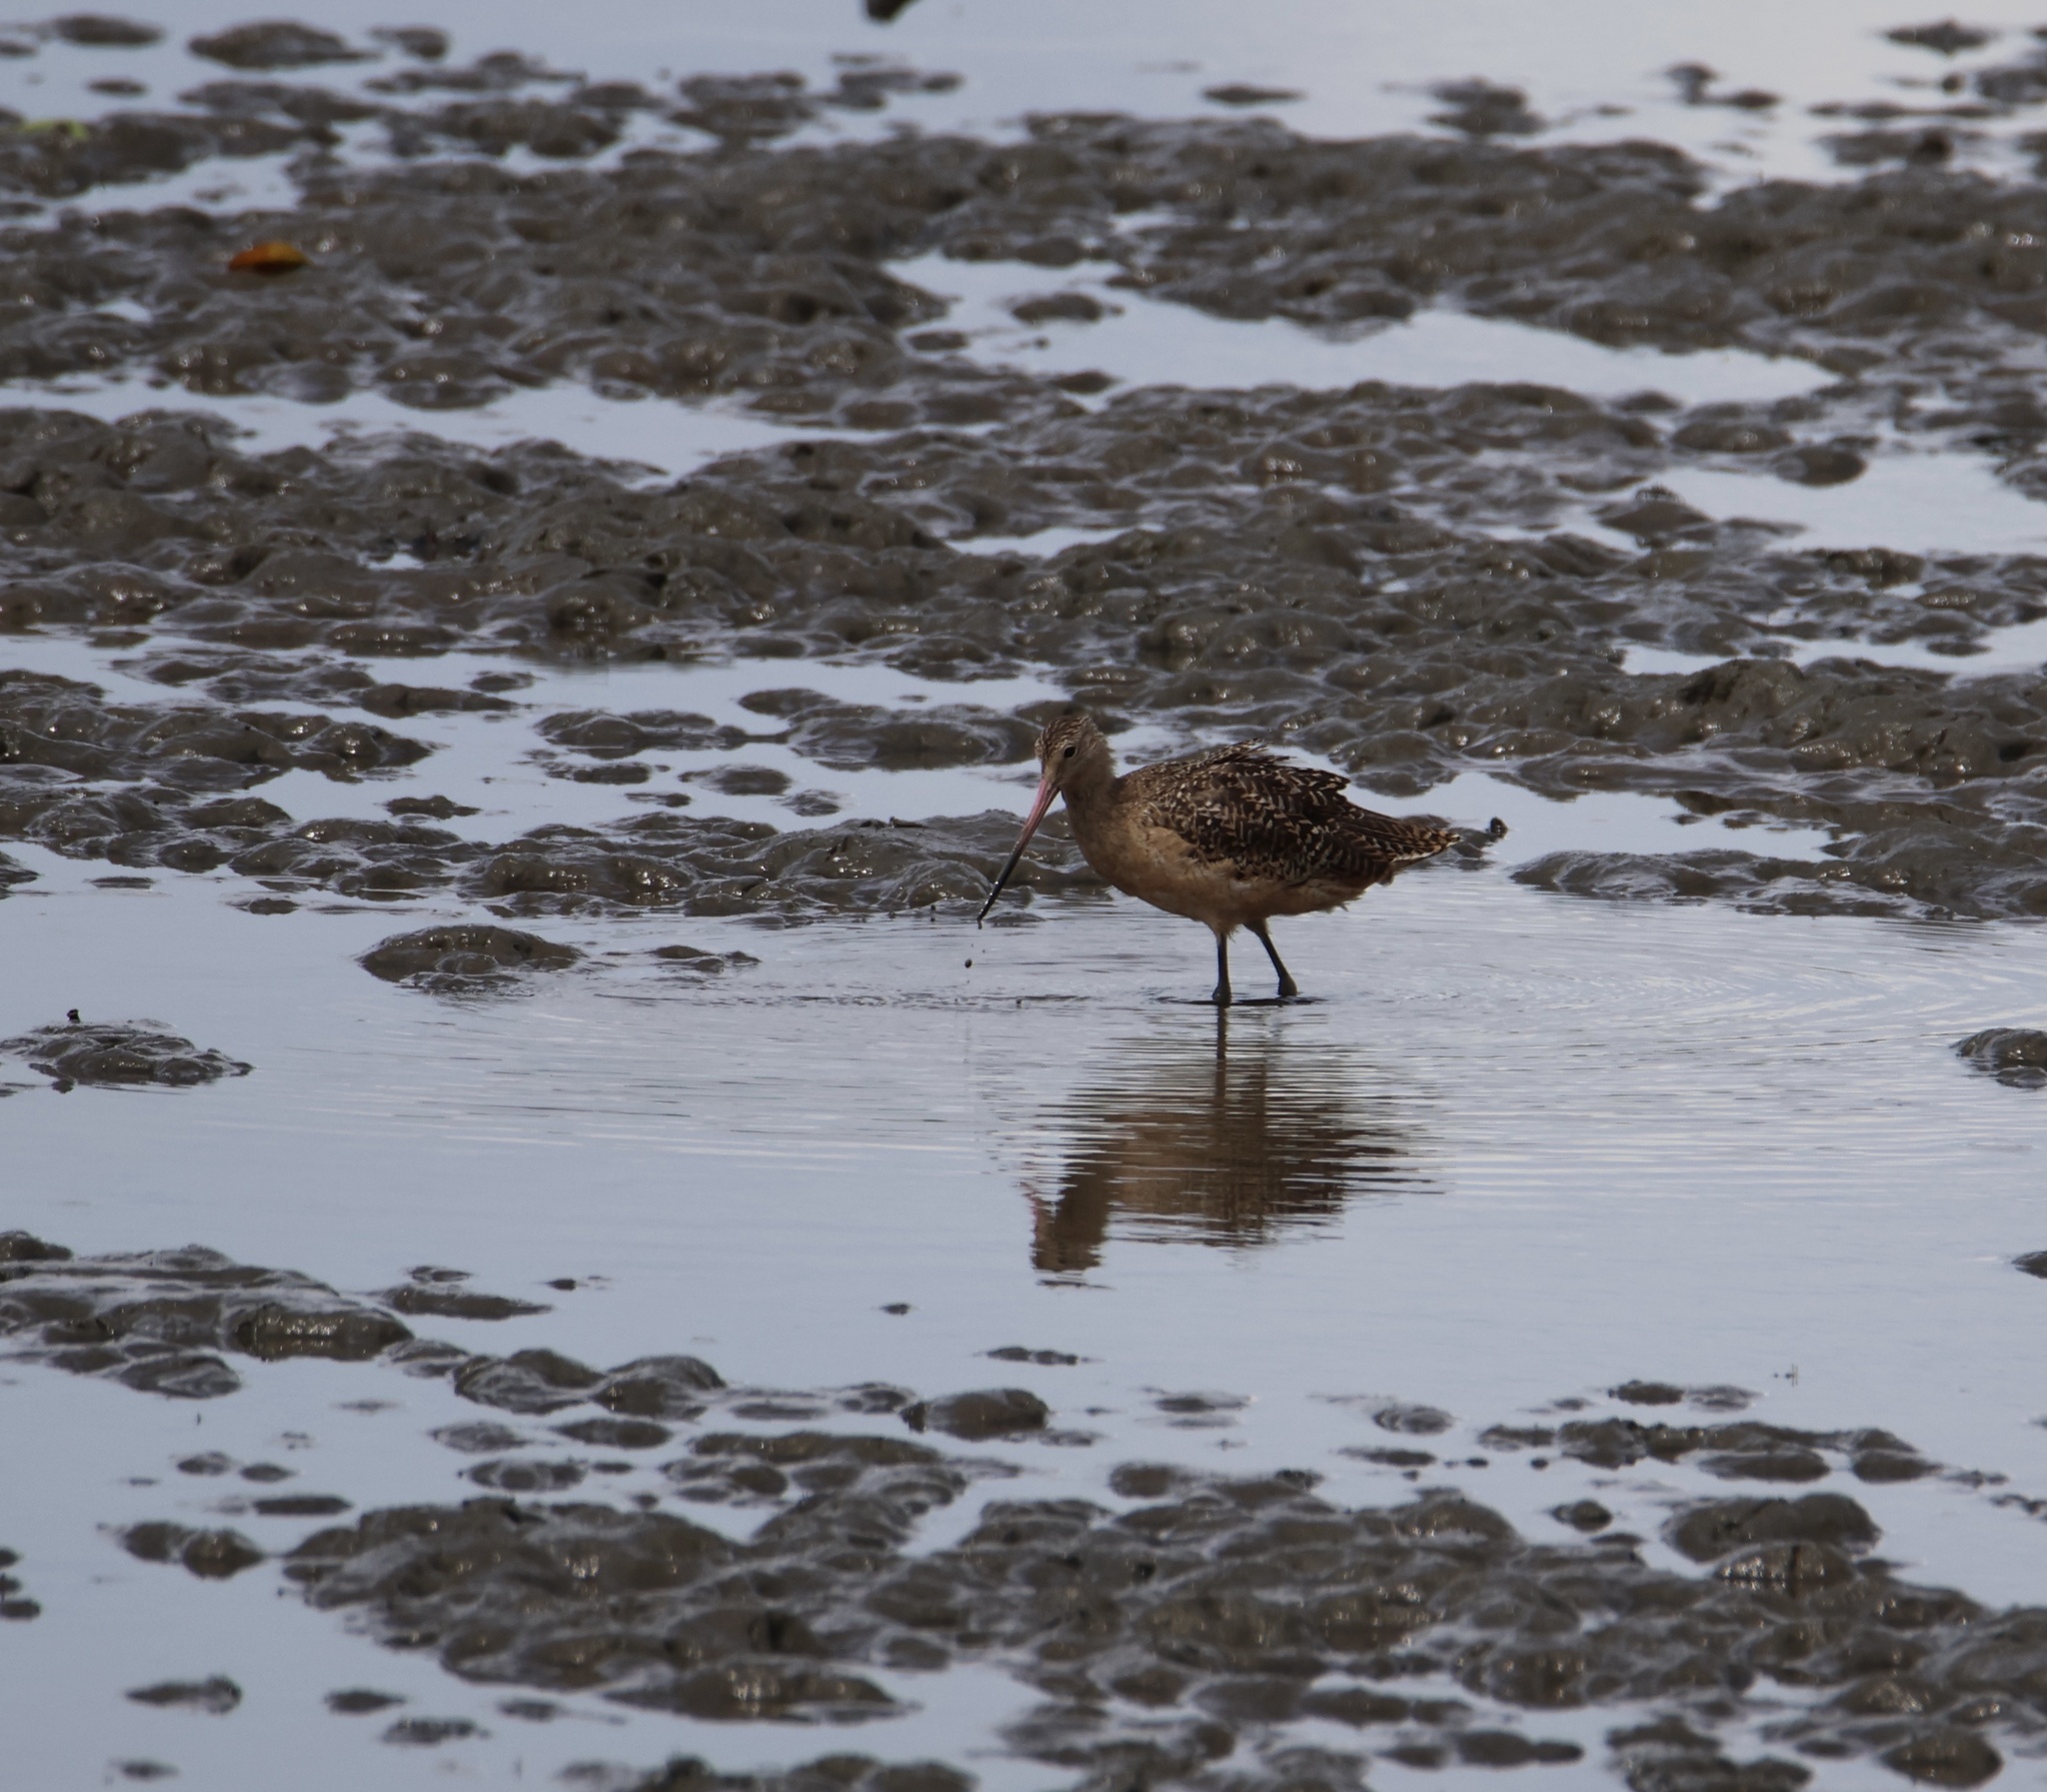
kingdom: Animalia
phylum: Chordata
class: Aves
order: Charadriiformes
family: Scolopacidae
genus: Limosa
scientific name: Limosa fedoa
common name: Marbled godwit
